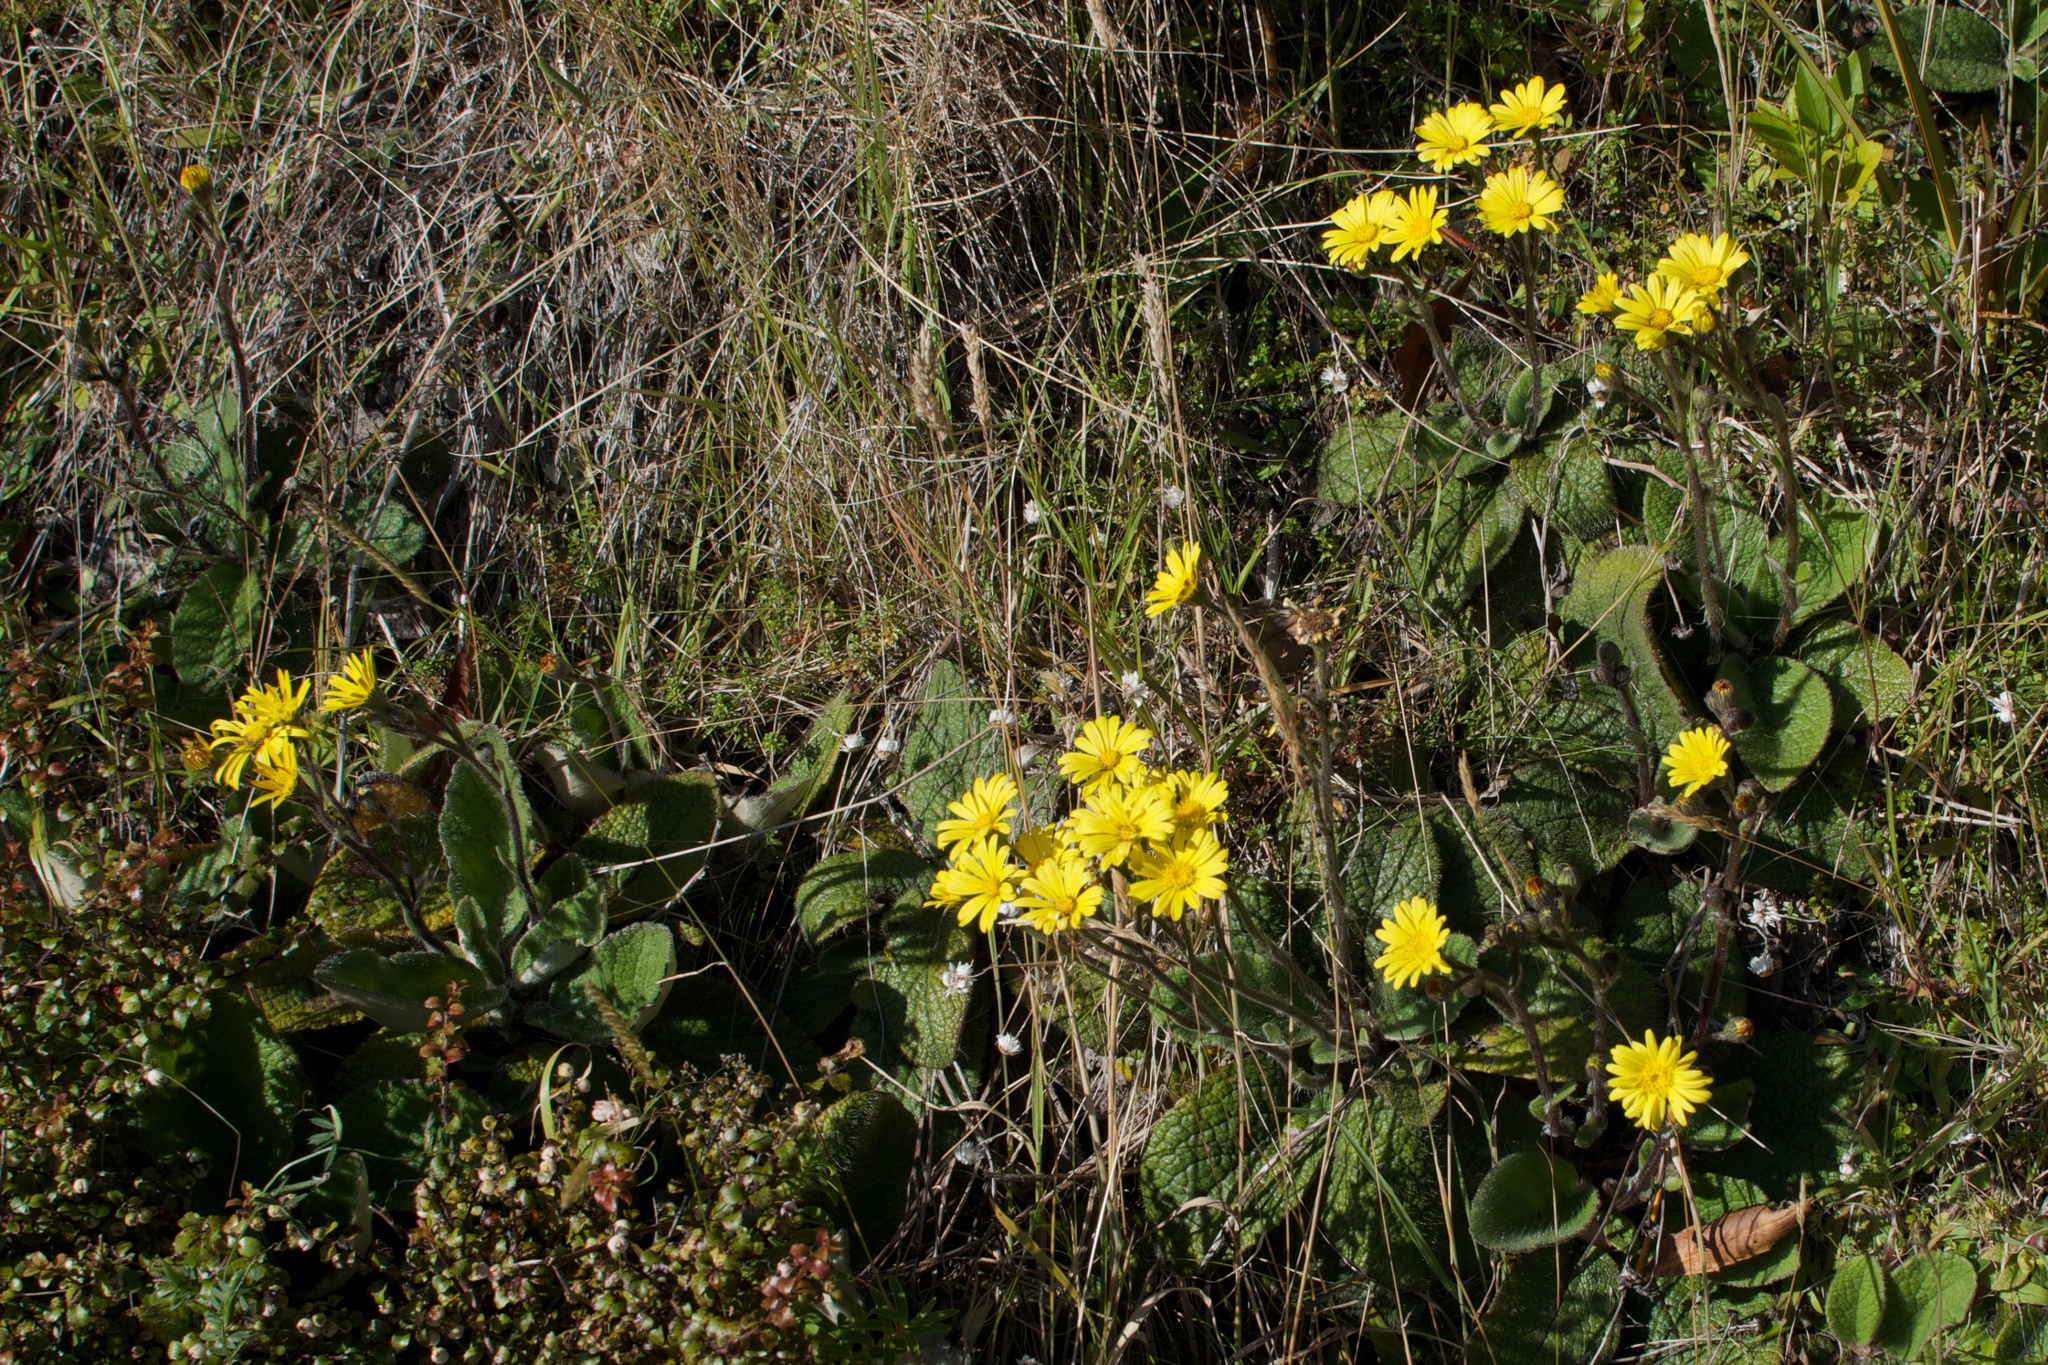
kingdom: Plantae
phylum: Tracheophyta
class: Magnoliopsida
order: Asterales
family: Asteraceae
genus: Brachyglottis
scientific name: Brachyglottis lagopus
